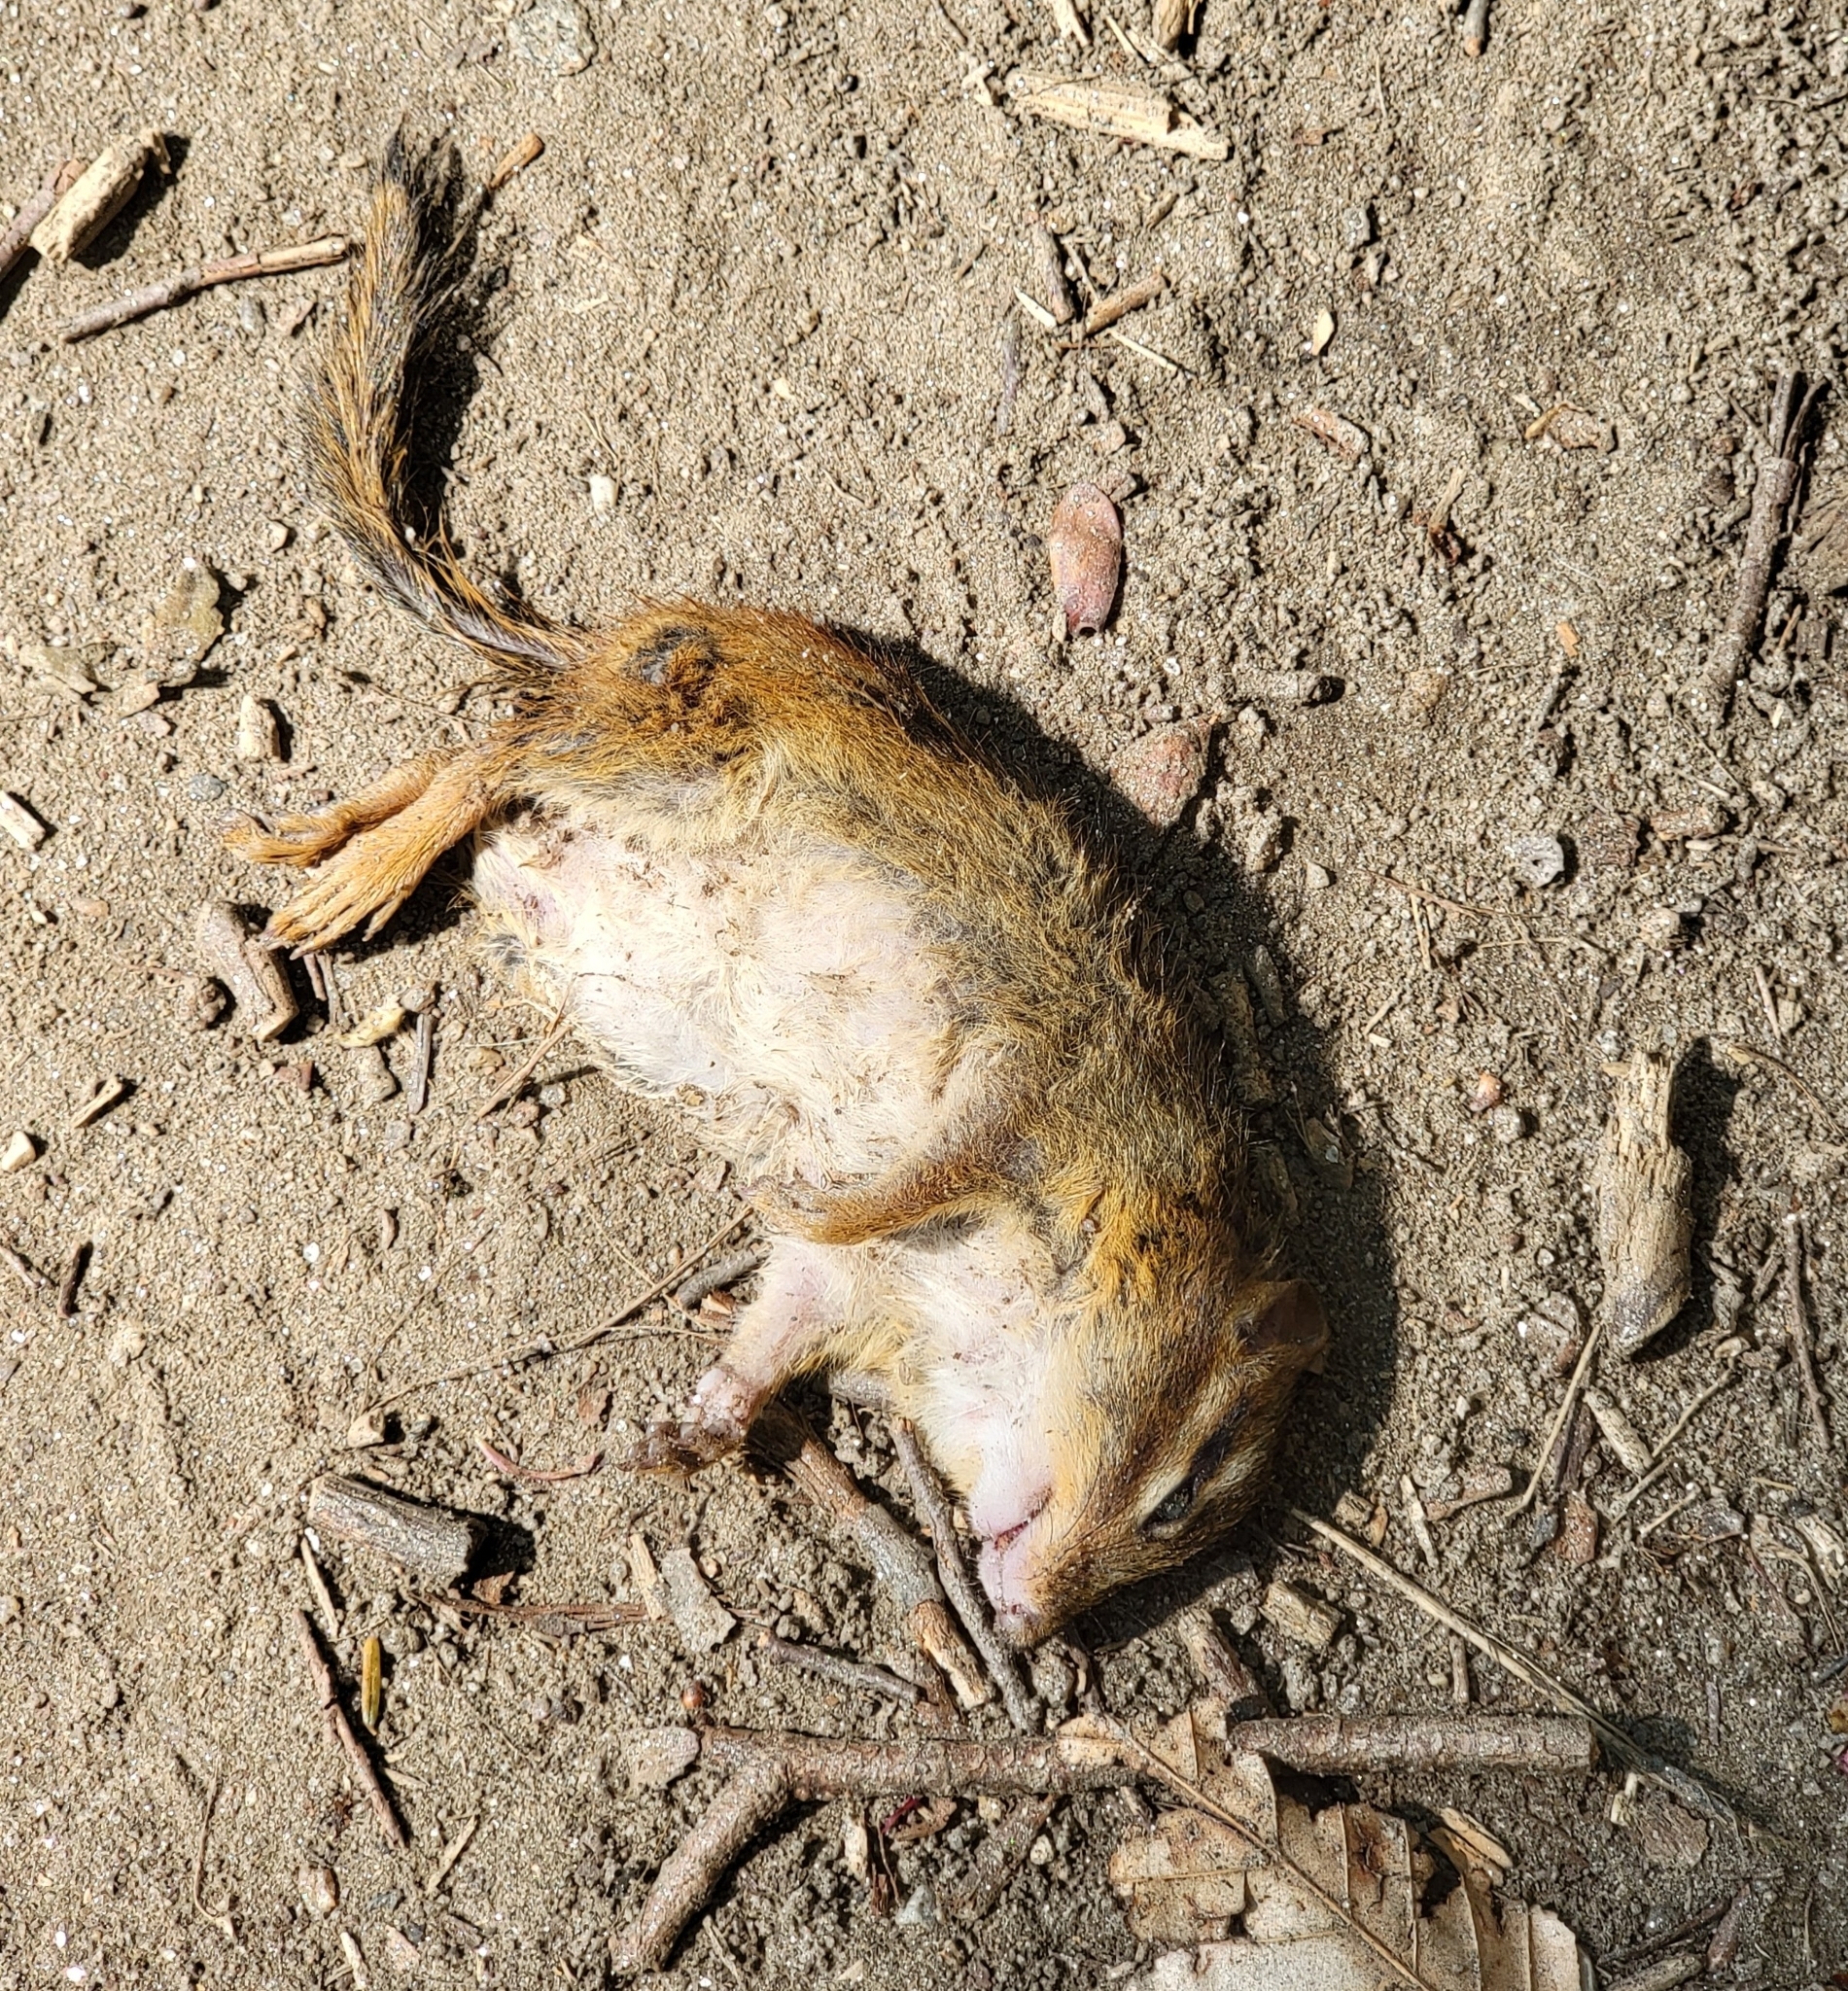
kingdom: Animalia
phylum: Chordata
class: Mammalia
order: Rodentia
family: Sciuridae
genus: Tamias
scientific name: Tamias striatus
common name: Eastern chipmunk
